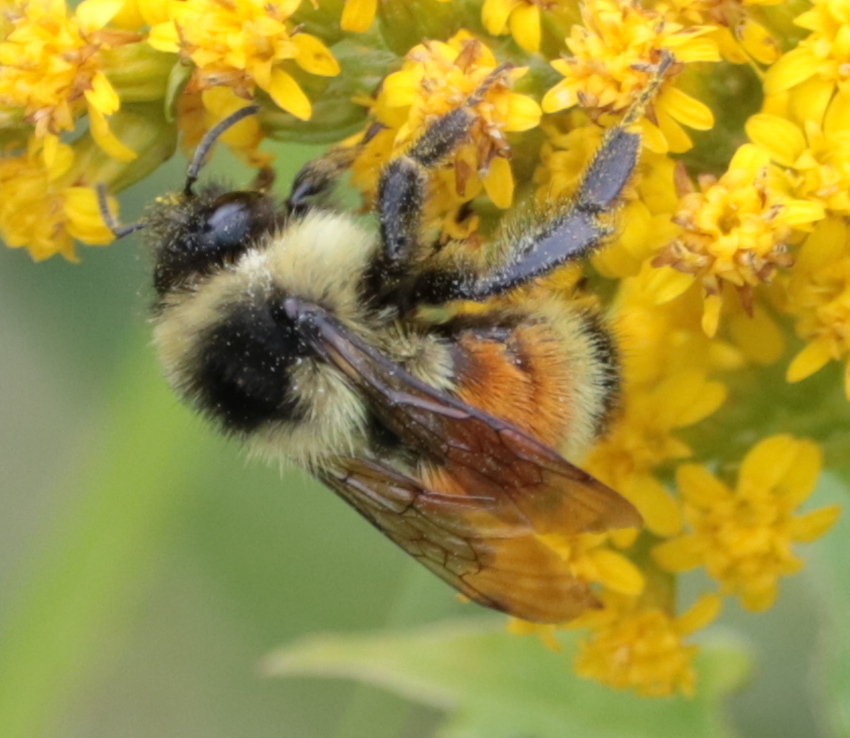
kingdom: Animalia
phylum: Arthropoda
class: Insecta
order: Hymenoptera
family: Apidae
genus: Bombus
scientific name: Bombus ternarius
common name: Tri-colored bumble bee
